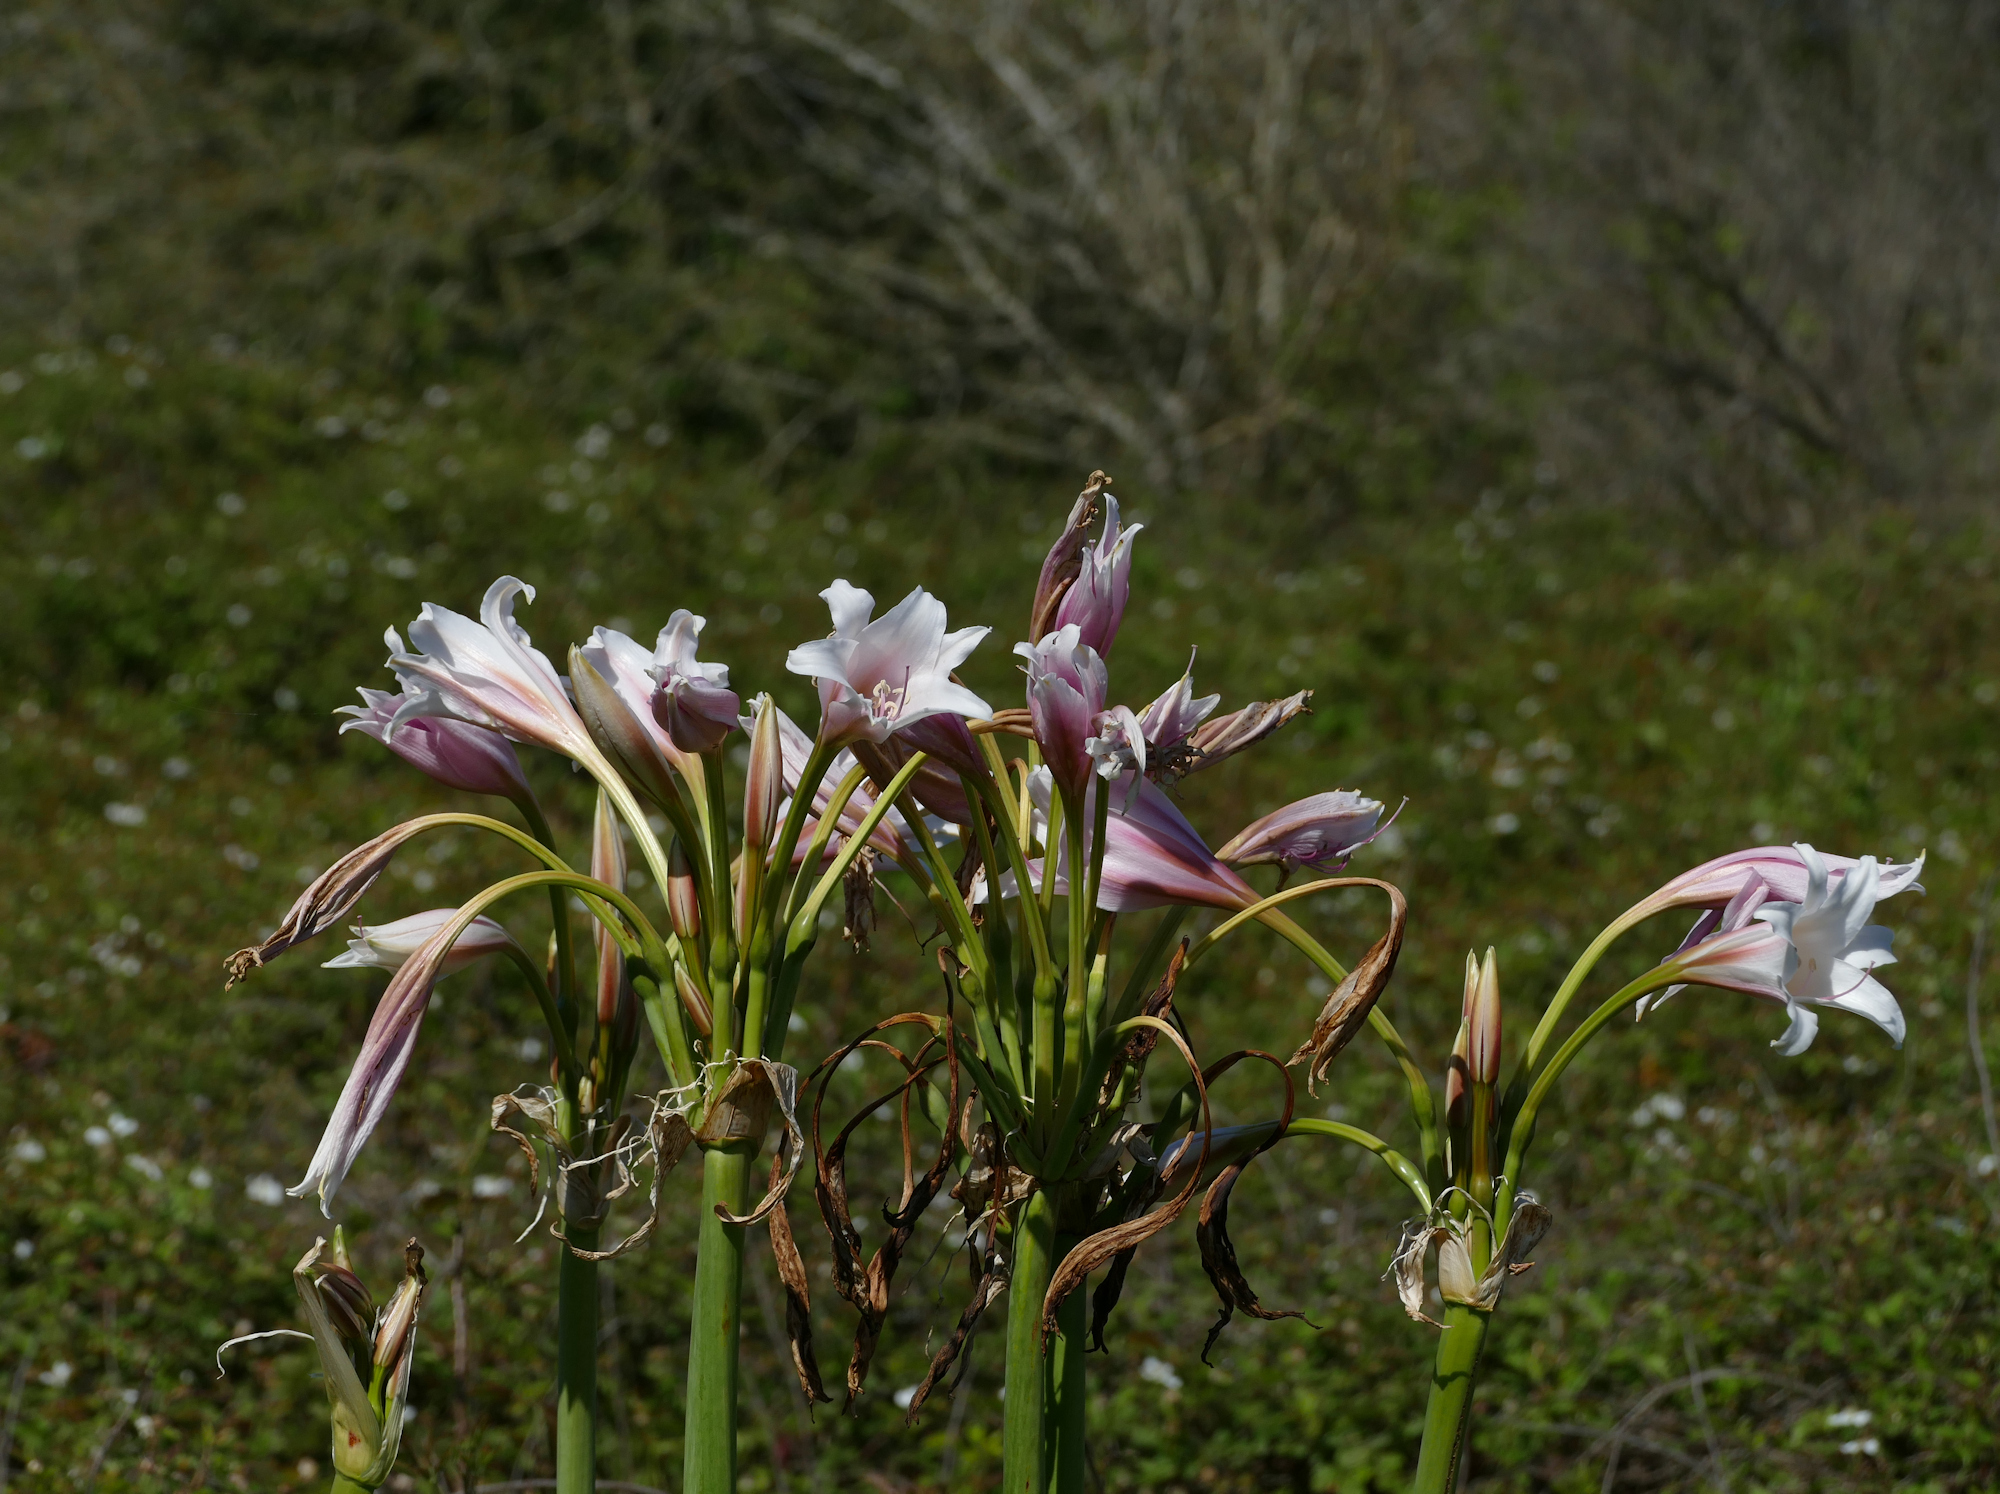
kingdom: Plantae
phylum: Tracheophyta
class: Liliopsida
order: Asparagales
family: Amaryllidaceae
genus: Crinum
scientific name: Crinum bulbispermum
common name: Hardy swamplily
